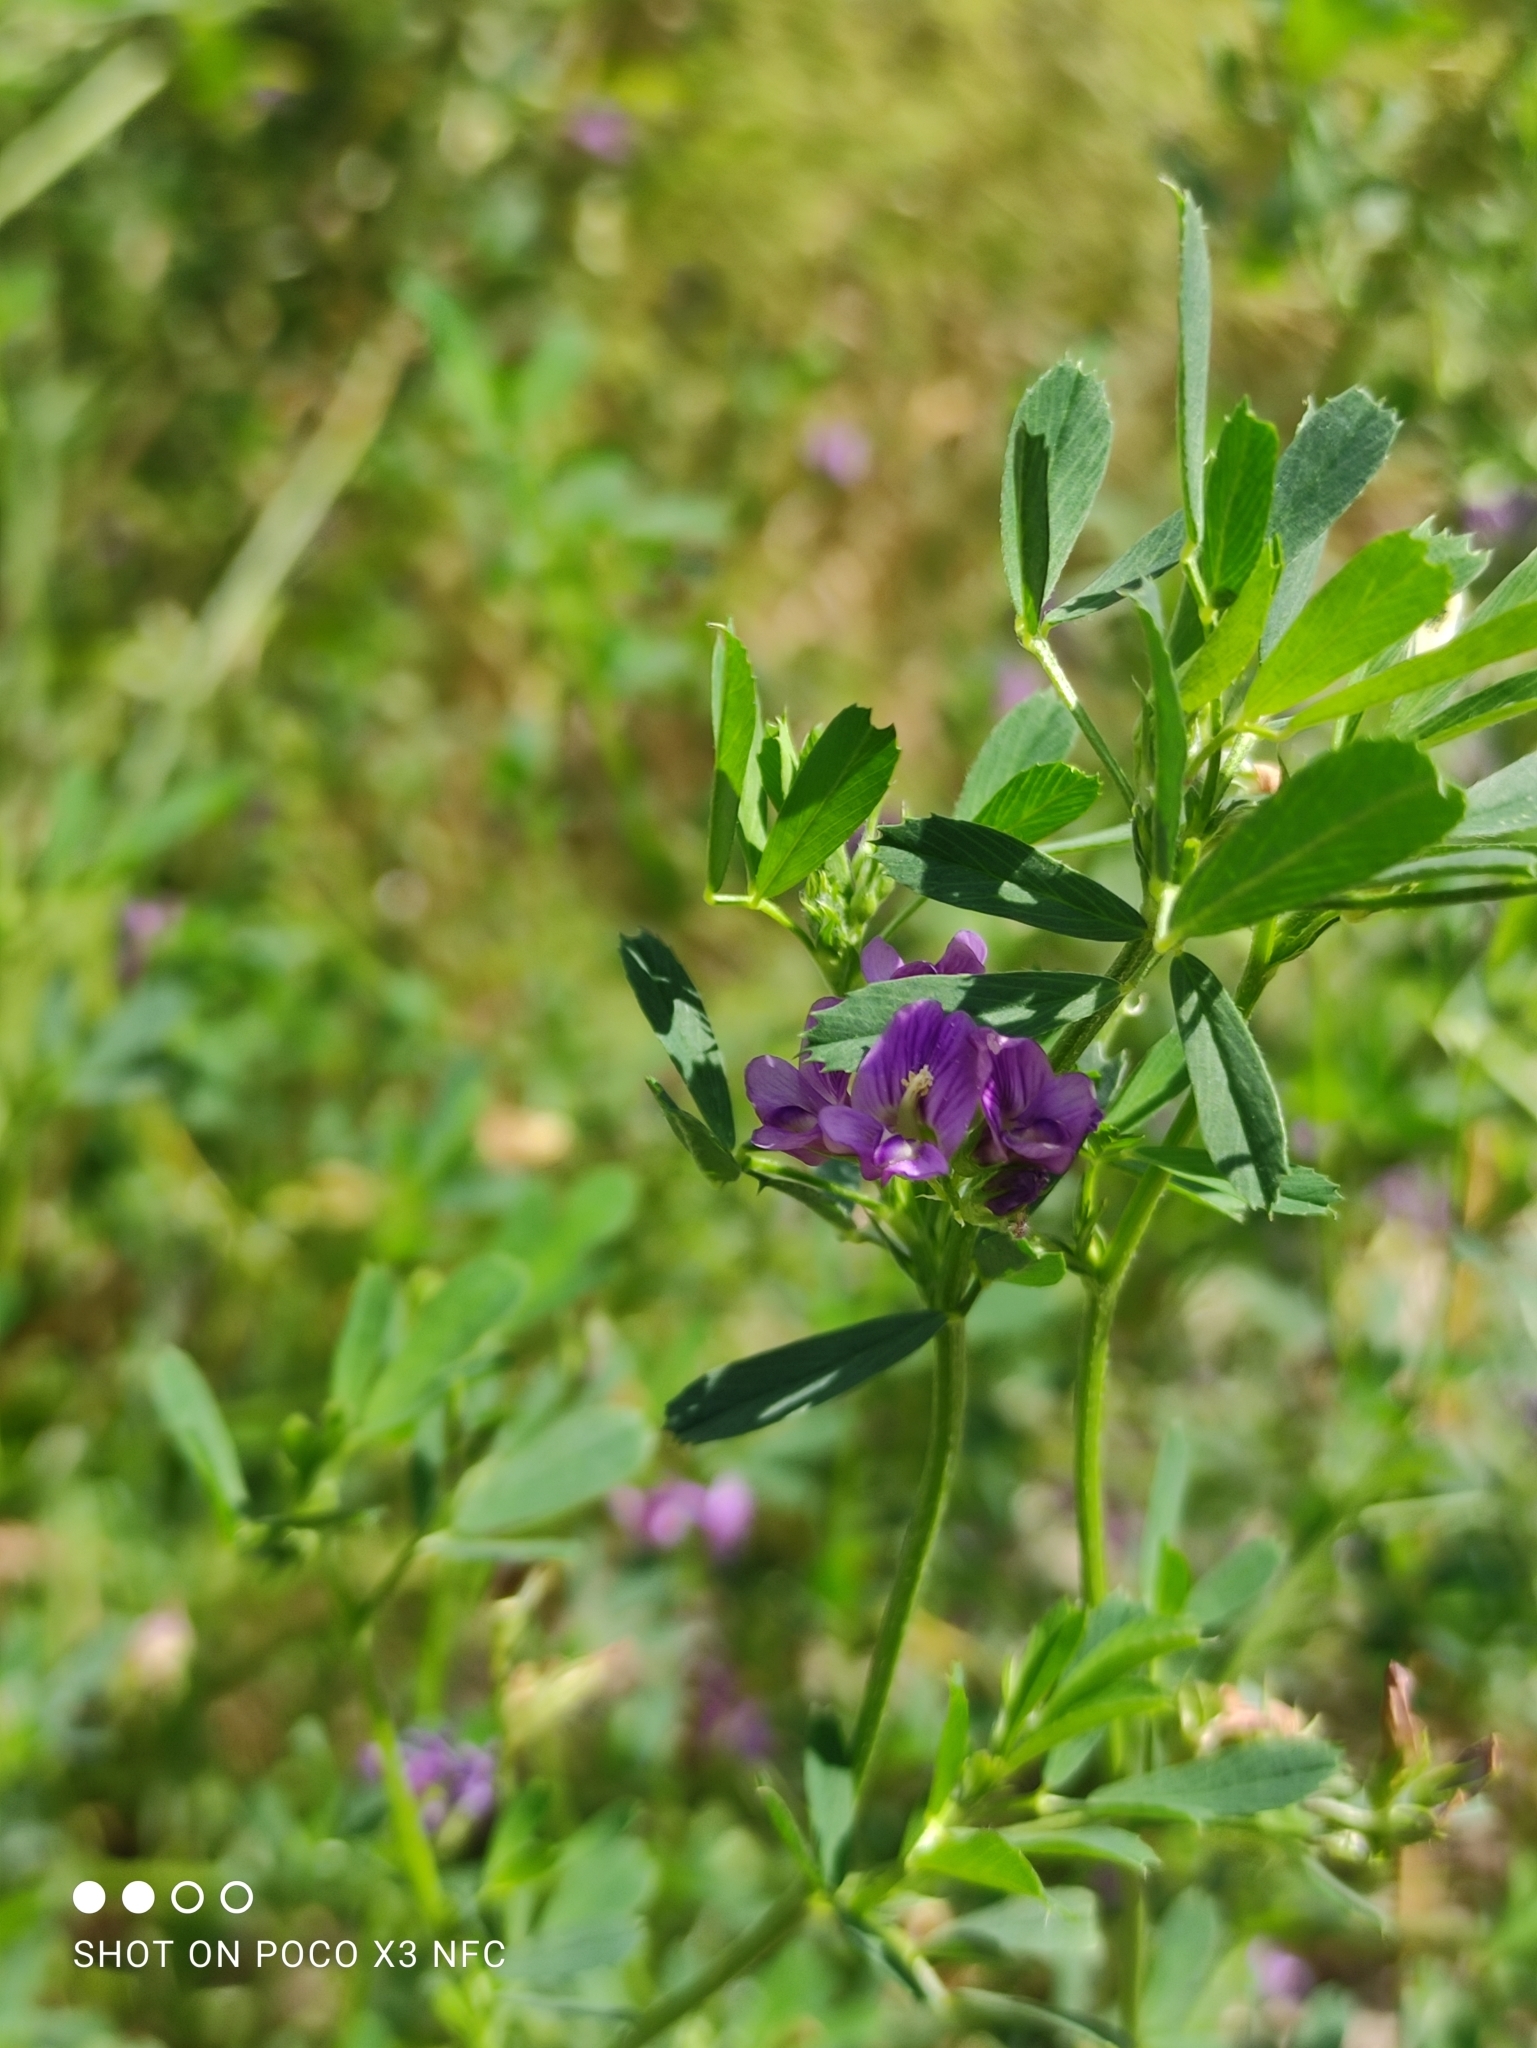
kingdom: Plantae
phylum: Tracheophyta
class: Magnoliopsida
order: Fabales
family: Fabaceae
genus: Medicago
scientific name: Medicago varia
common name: Sand lucerne
